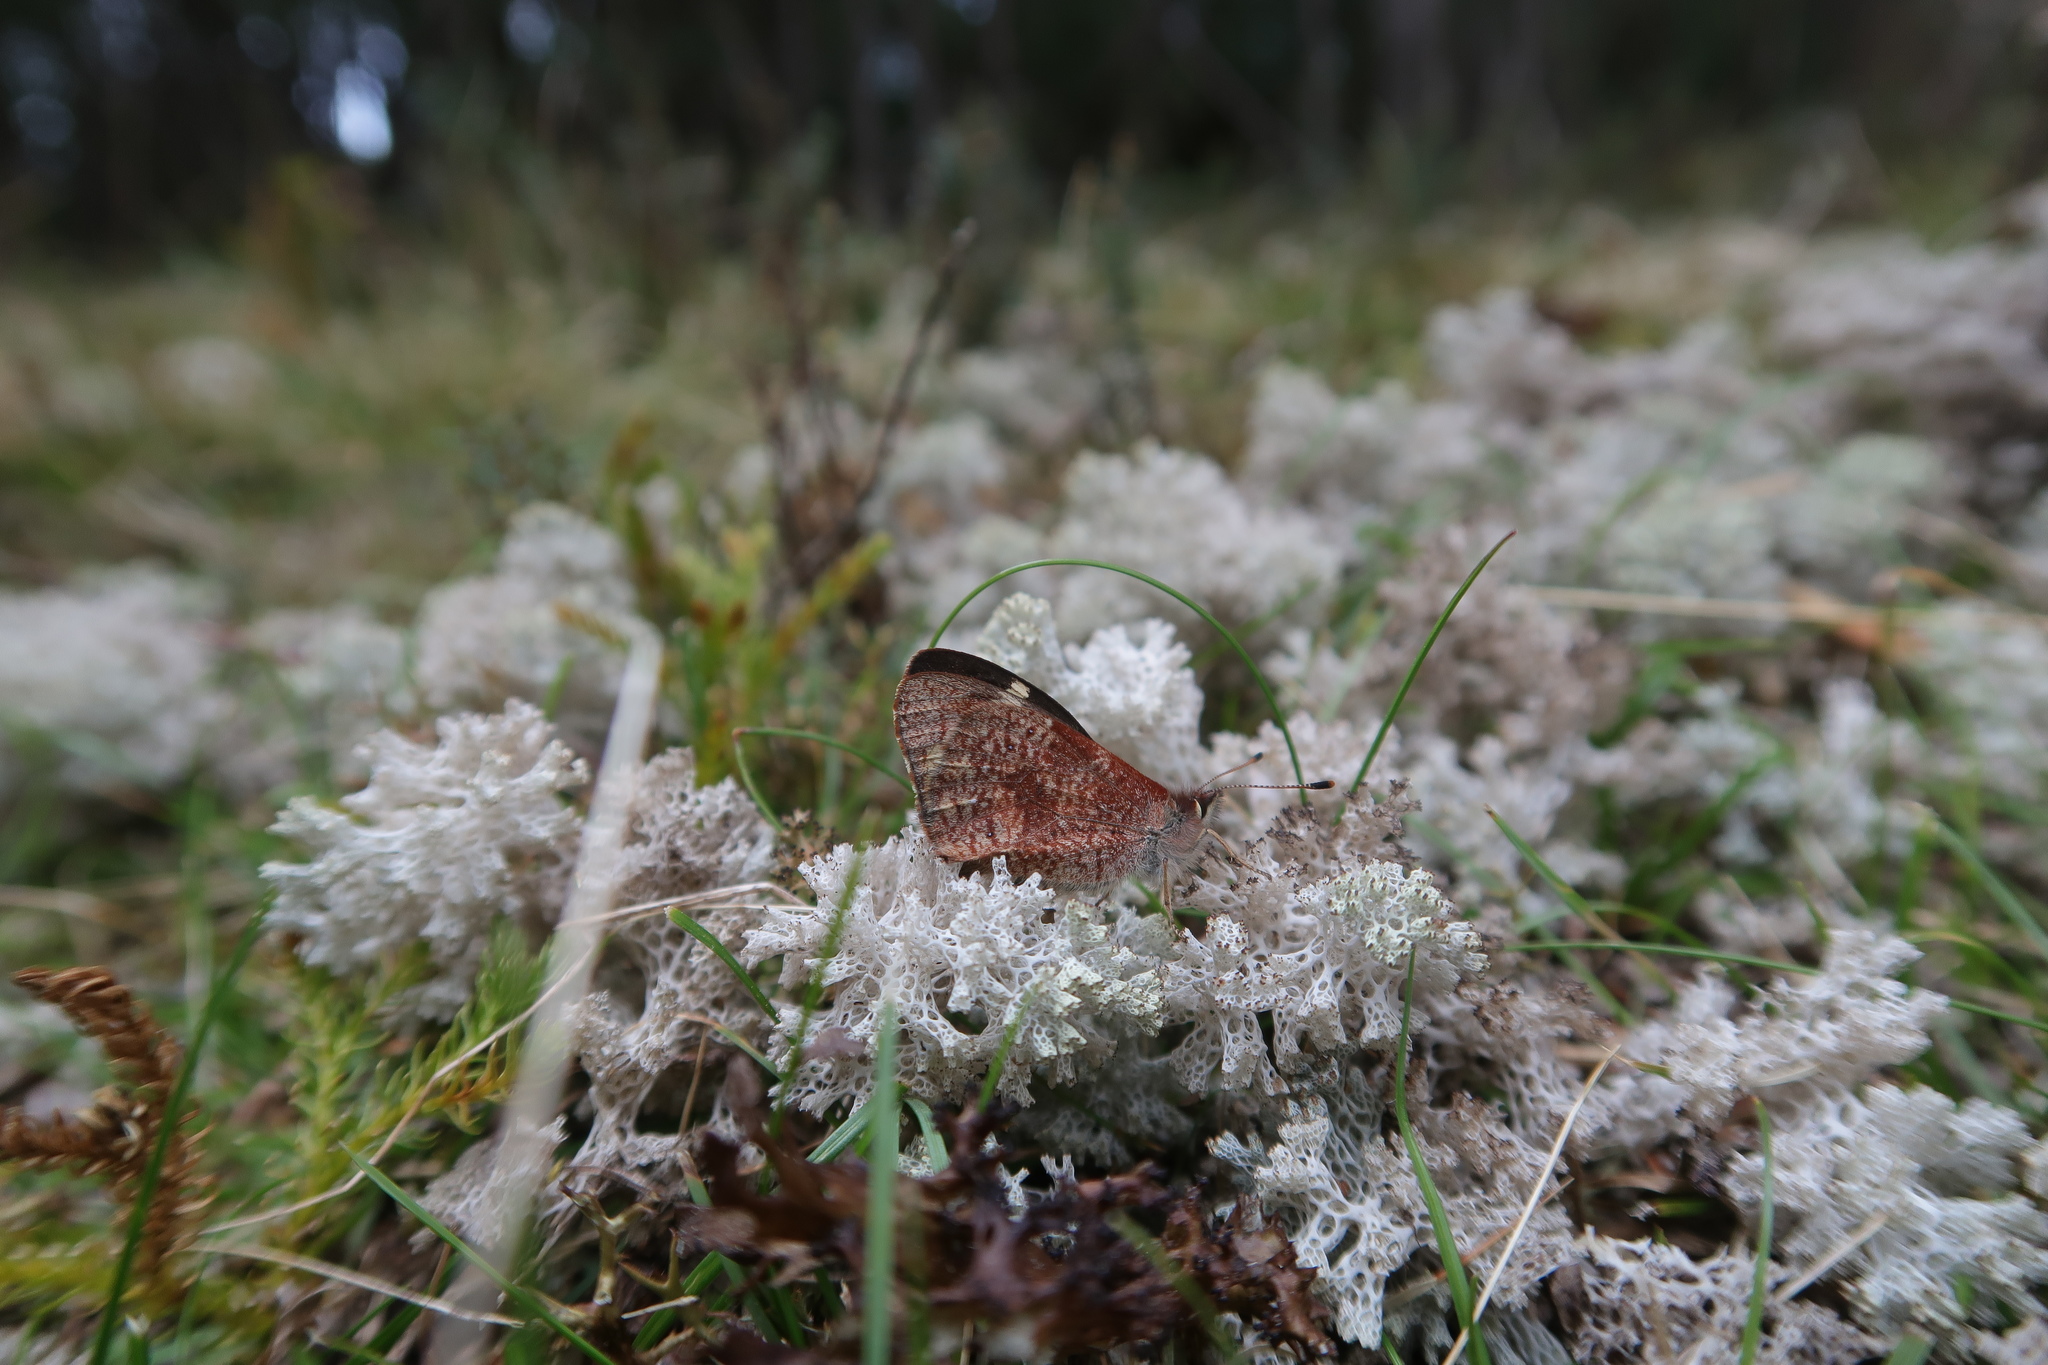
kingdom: Animalia
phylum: Arthropoda
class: Insecta
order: Lepidoptera
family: Nymphalidae
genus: Argynnina
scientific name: Argynnina hobartia
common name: Hobart brown
